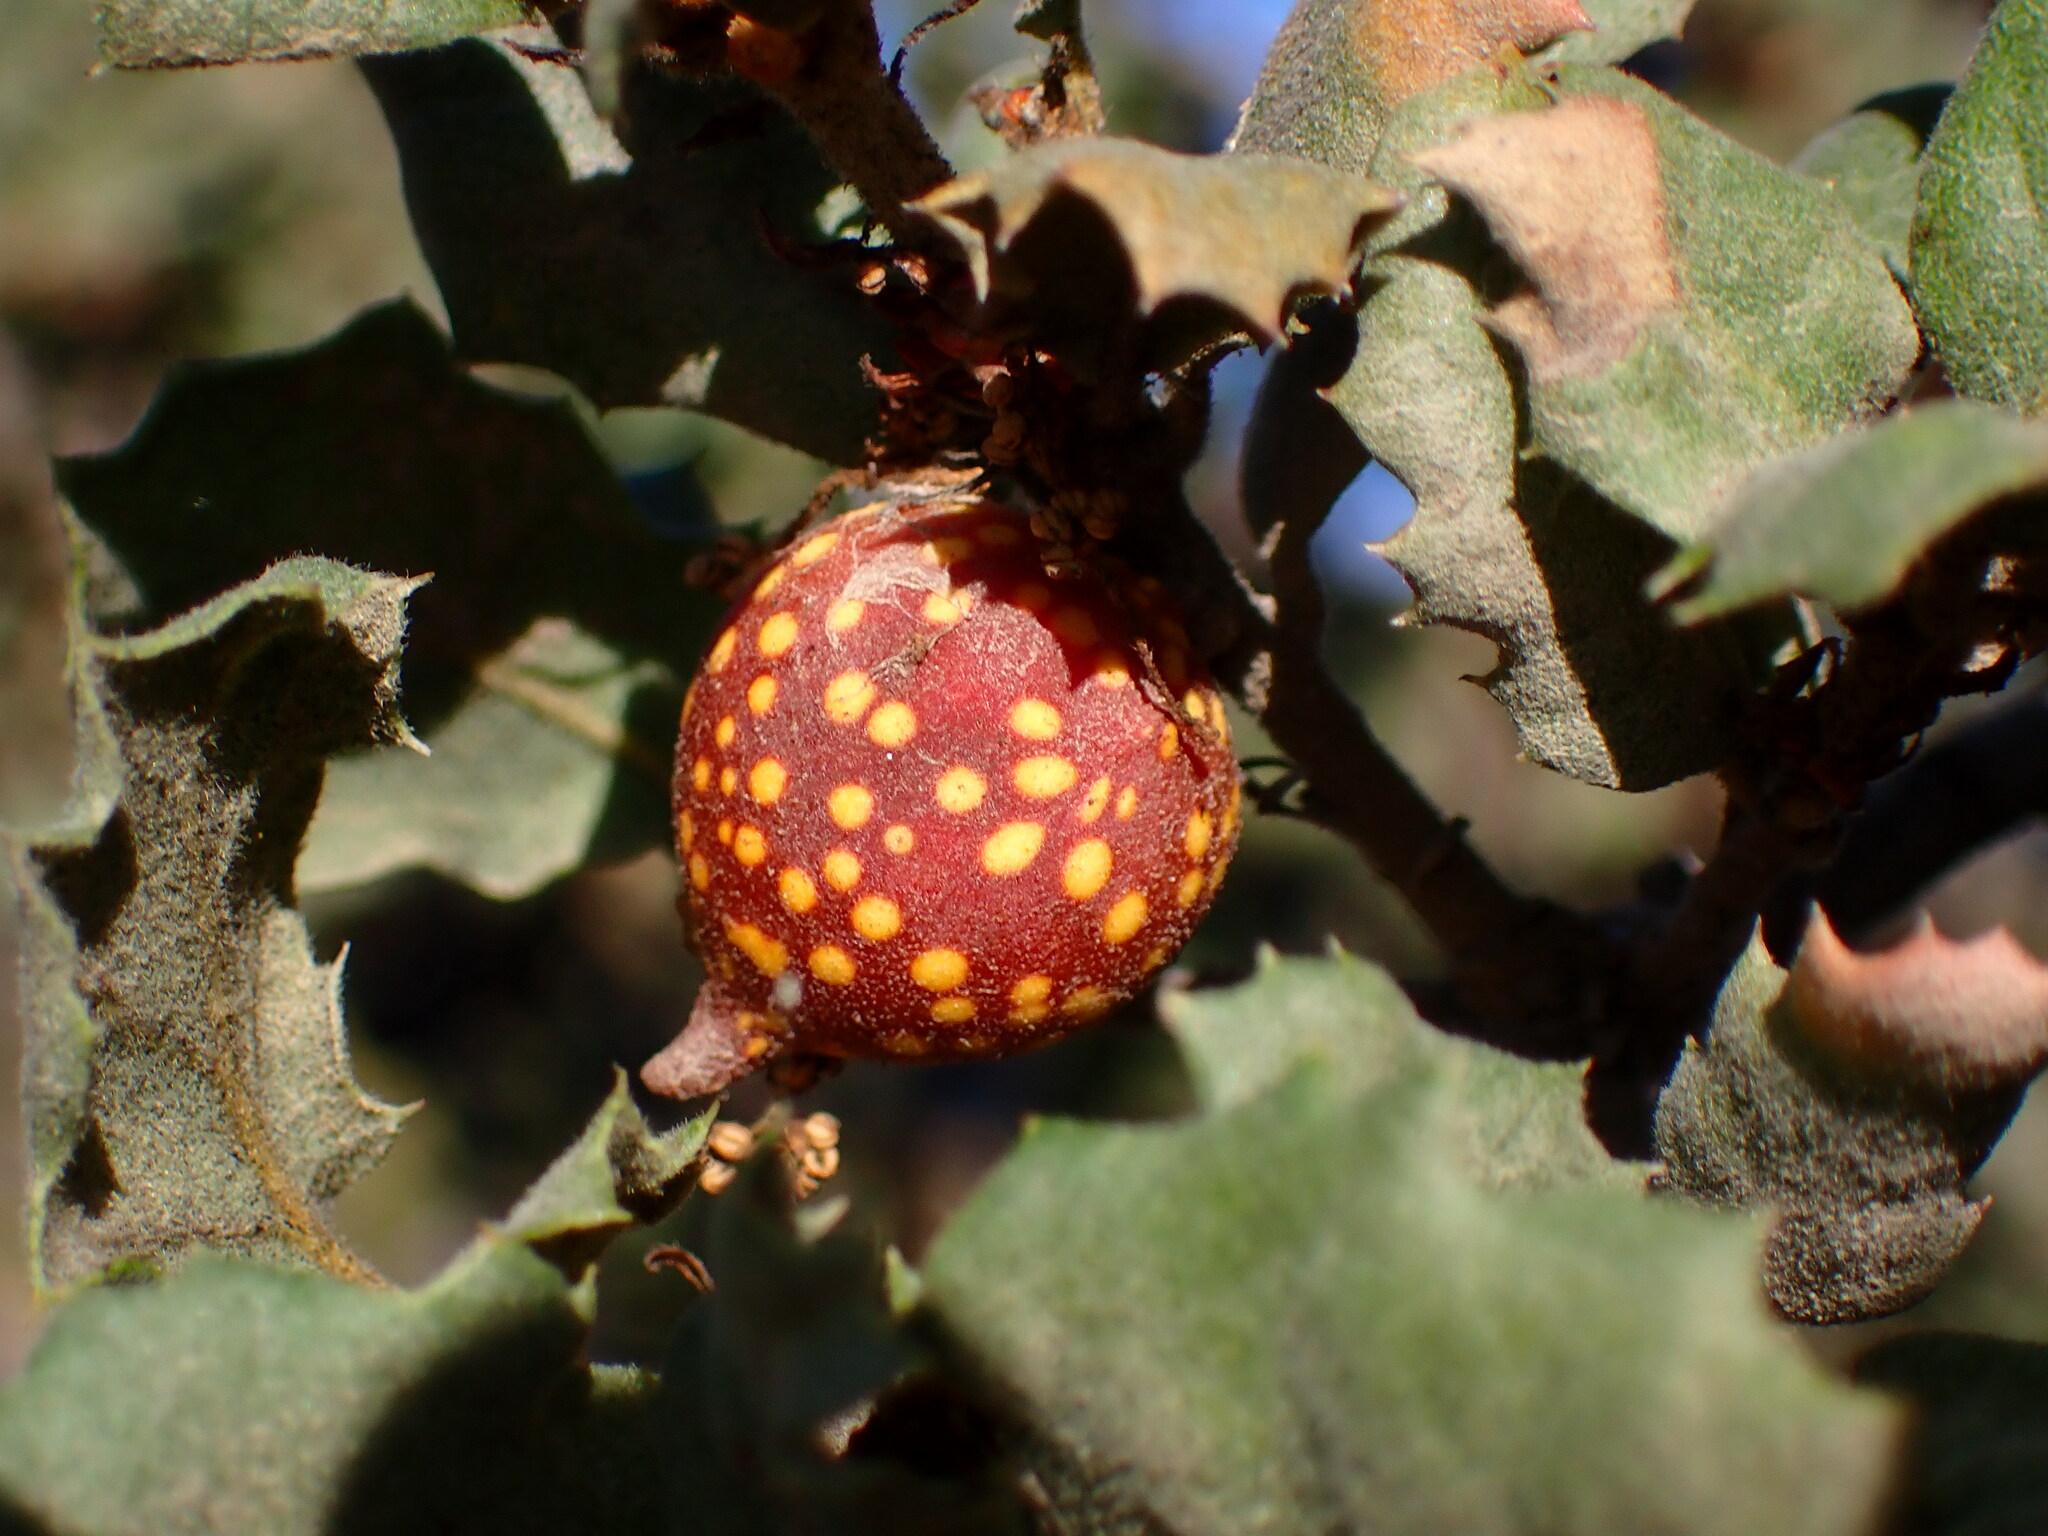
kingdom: Animalia
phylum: Arthropoda
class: Insecta
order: Hymenoptera
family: Cynipidae
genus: Burnettweldia
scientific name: Burnettweldia
